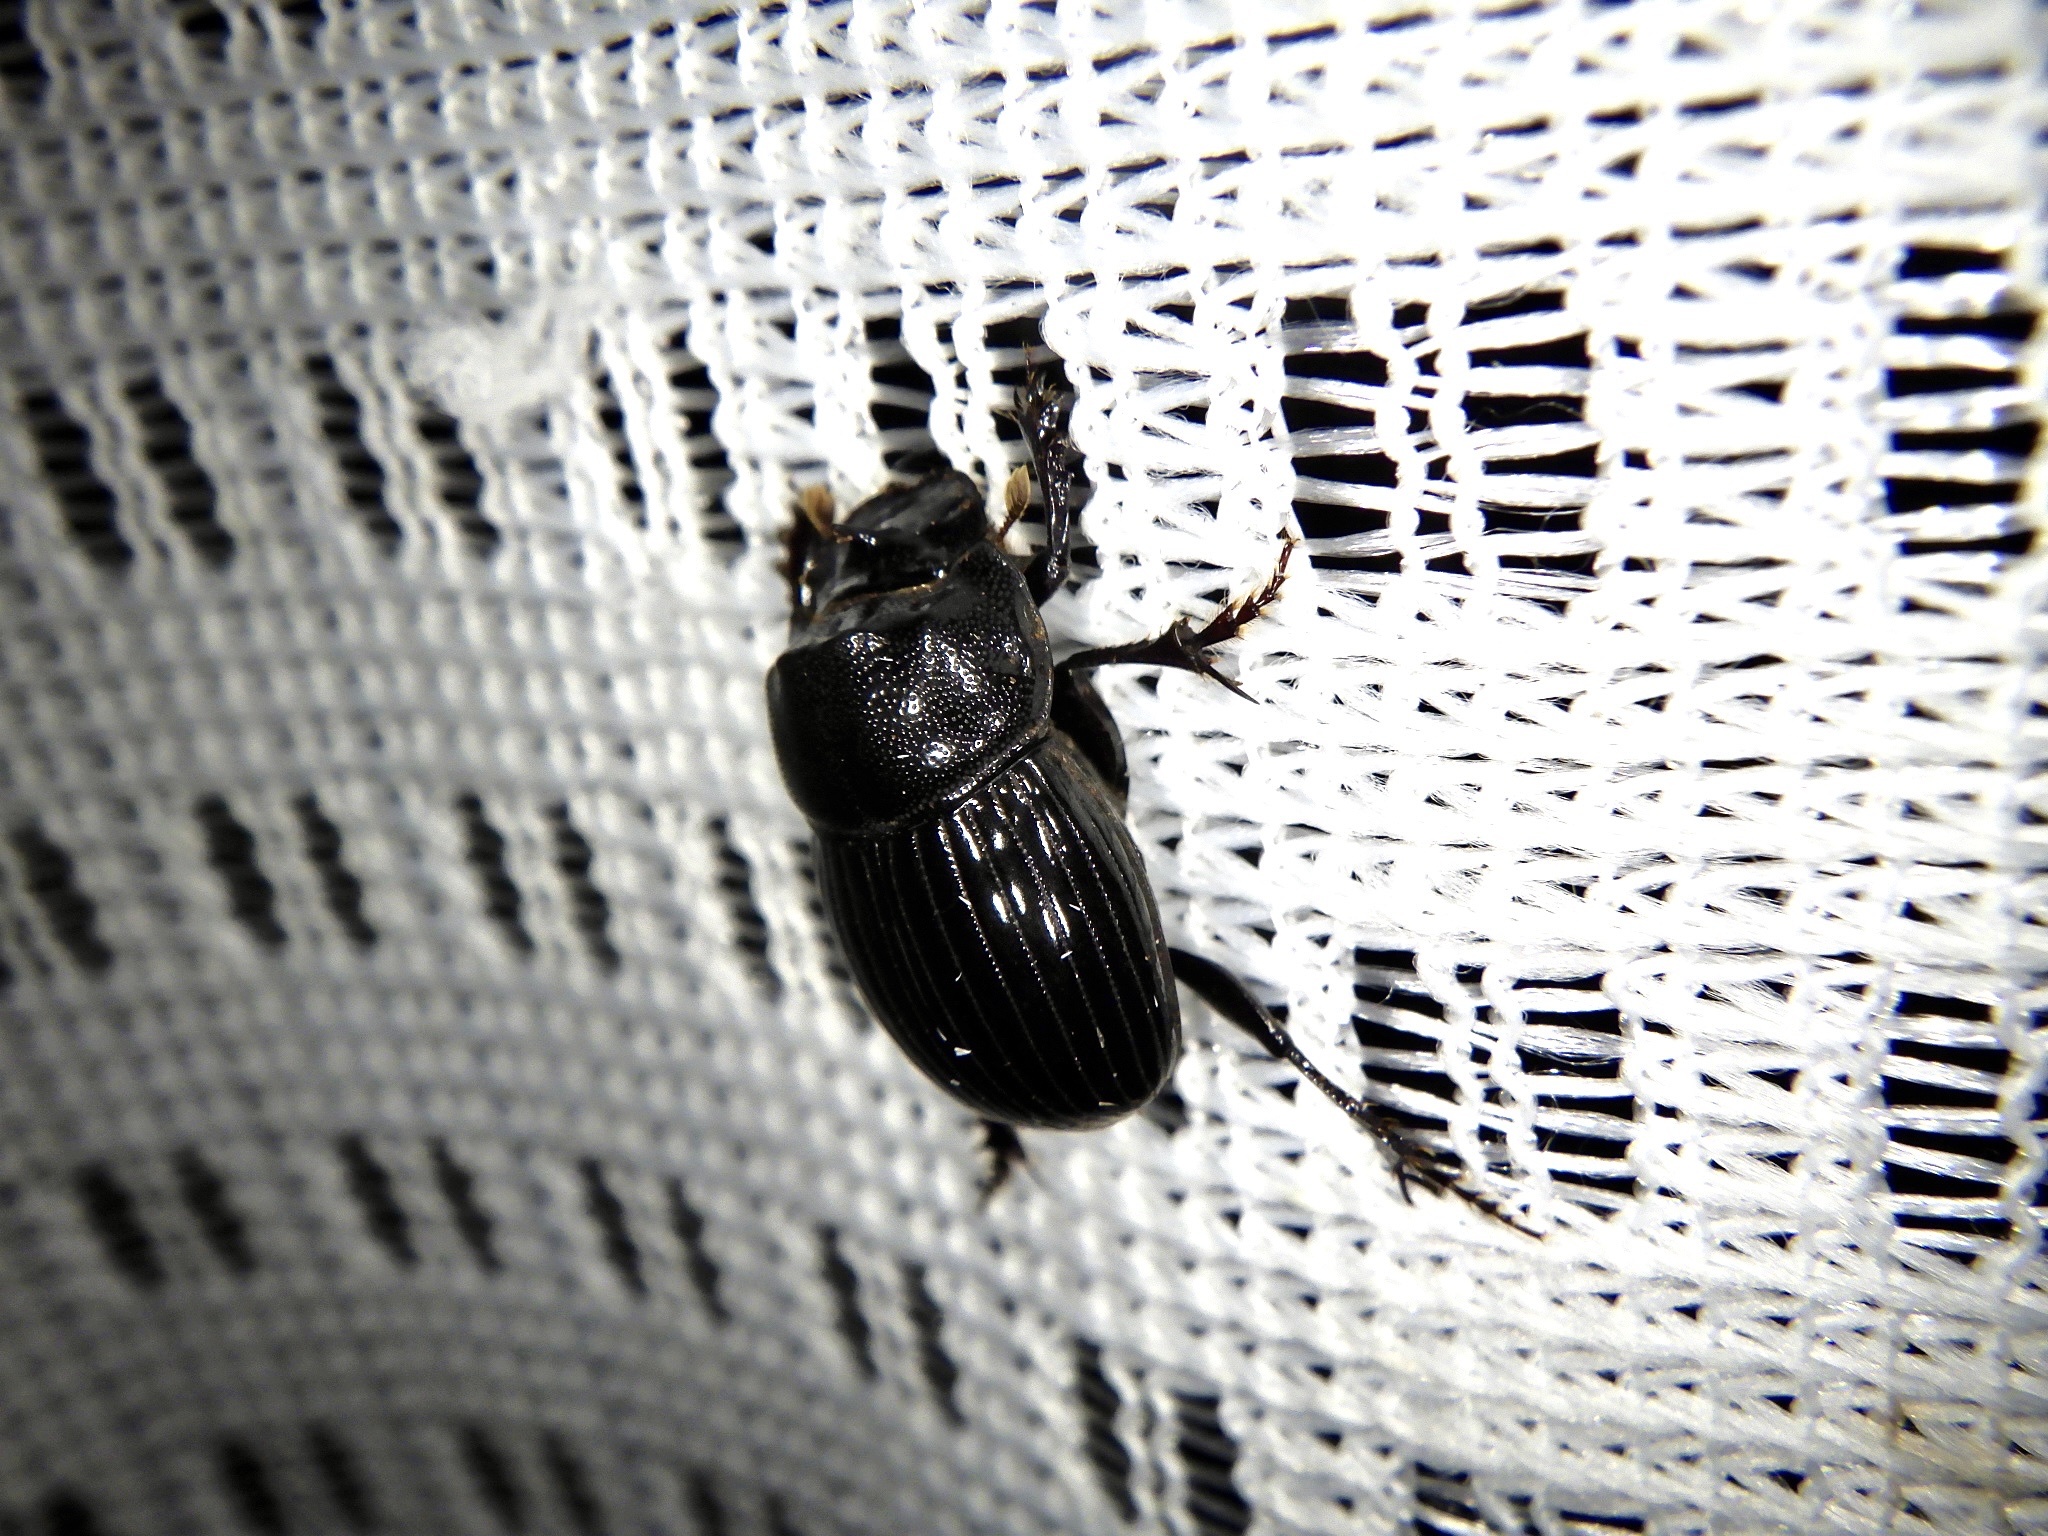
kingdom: Animalia
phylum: Arthropoda
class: Insecta
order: Coleoptera
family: Scarabaeidae
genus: Copris
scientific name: Copris acutidens
